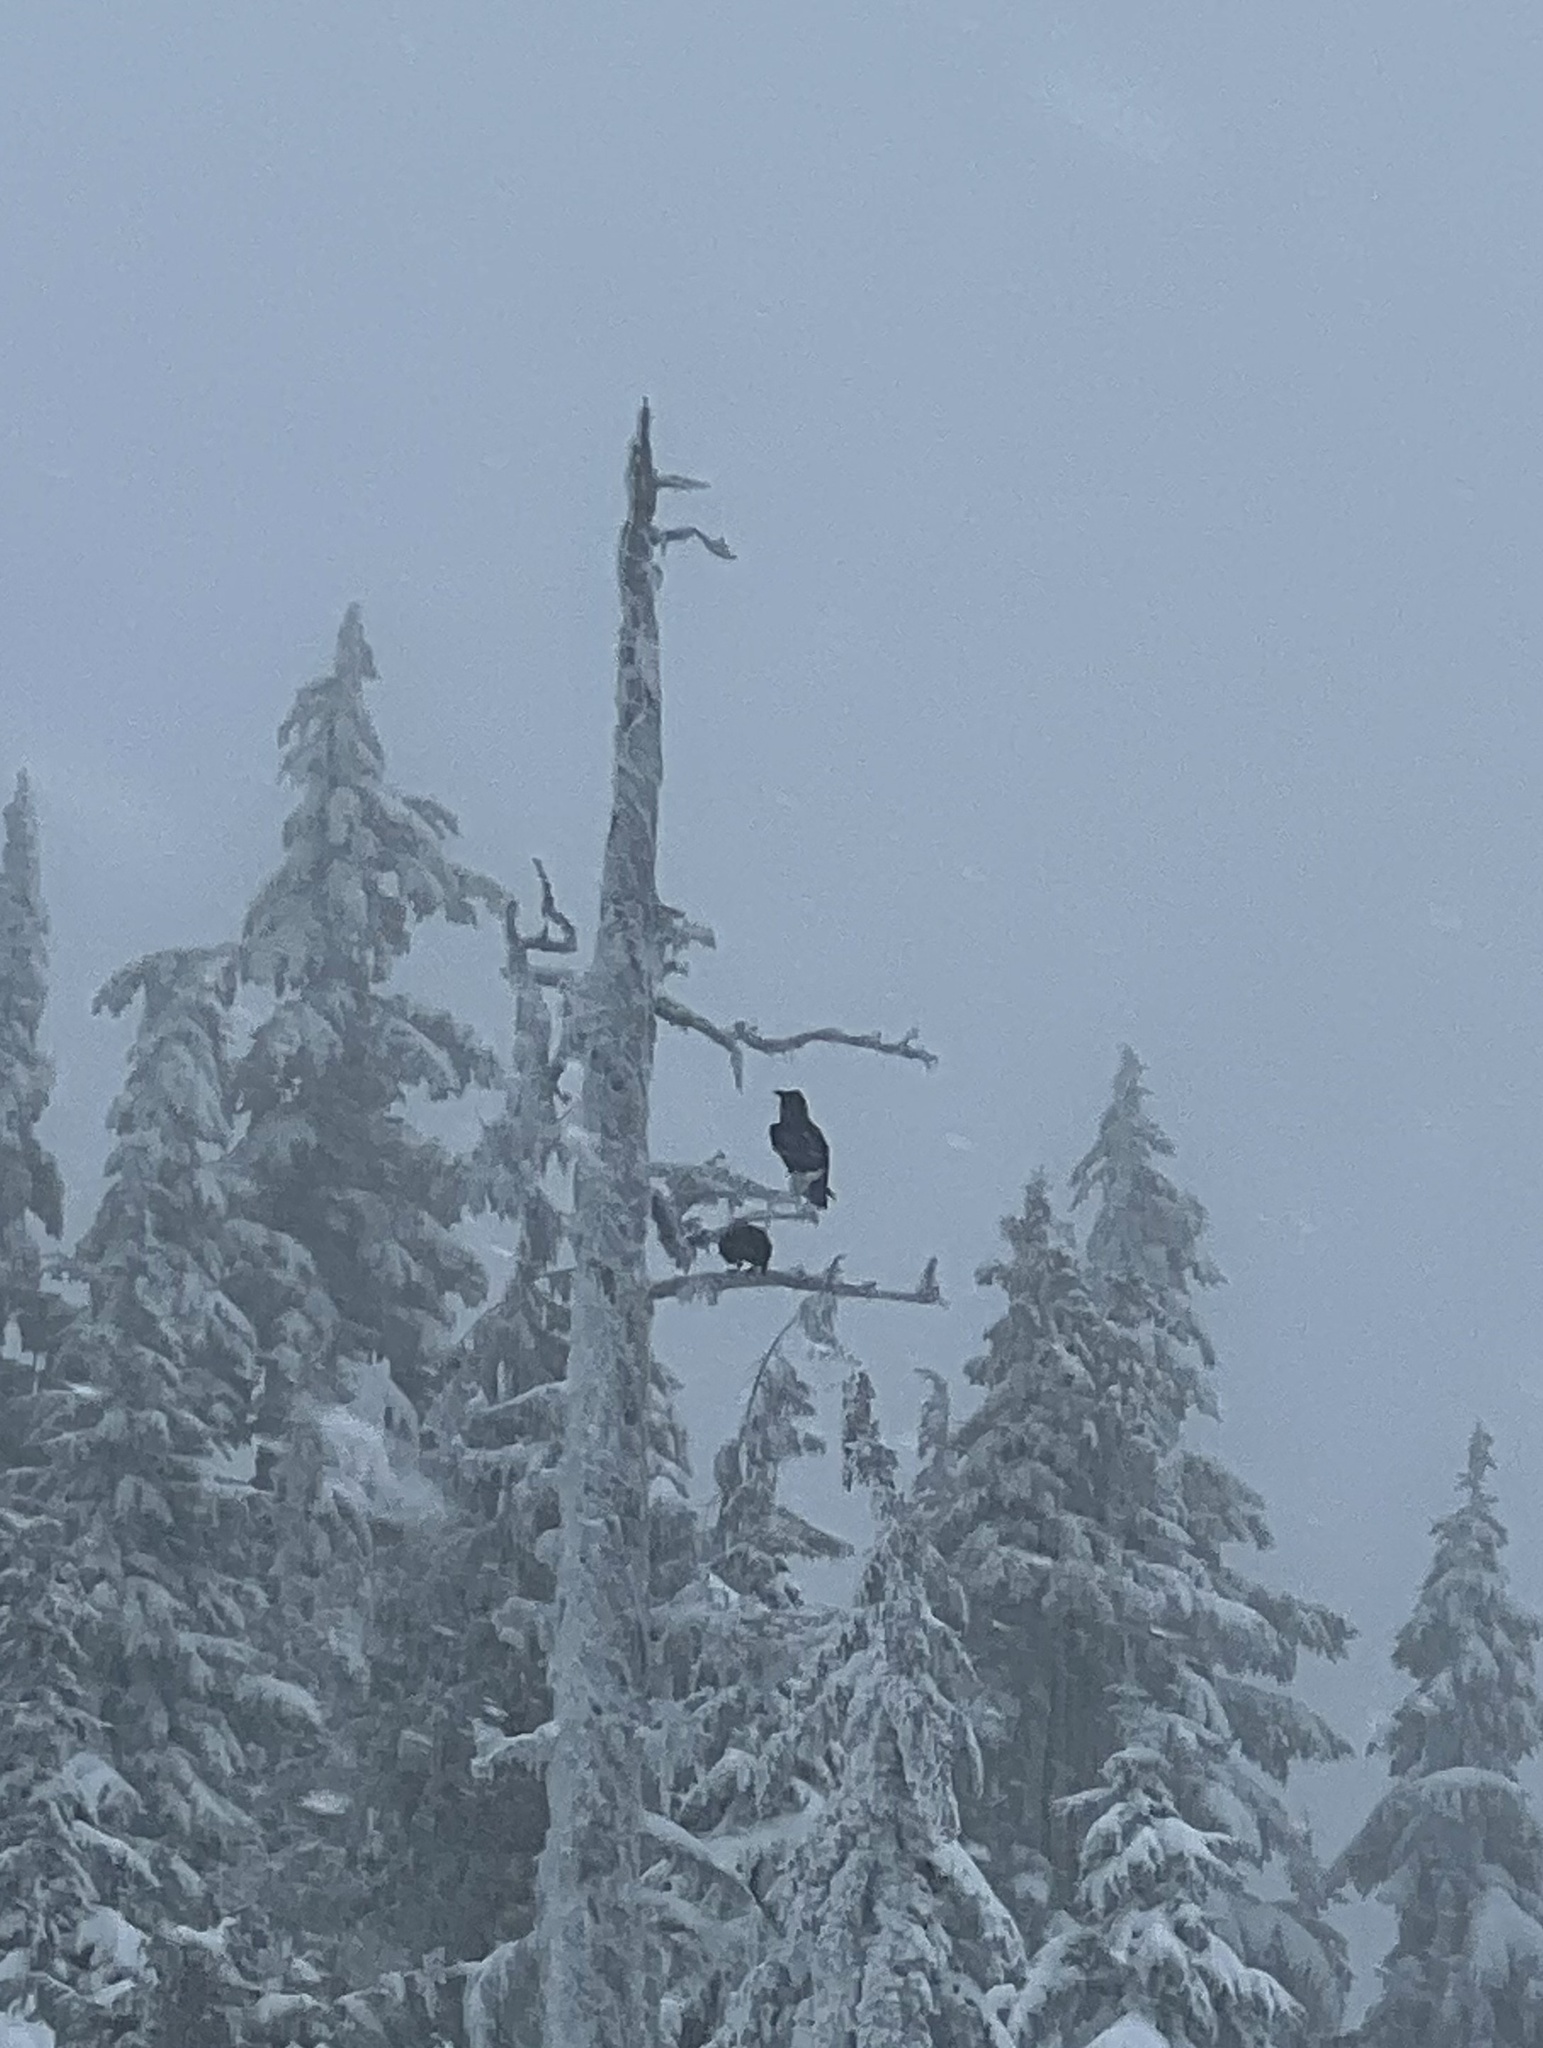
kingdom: Animalia
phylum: Chordata
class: Aves
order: Passeriformes
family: Corvidae
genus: Corvus
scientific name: Corvus corax
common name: Common raven
